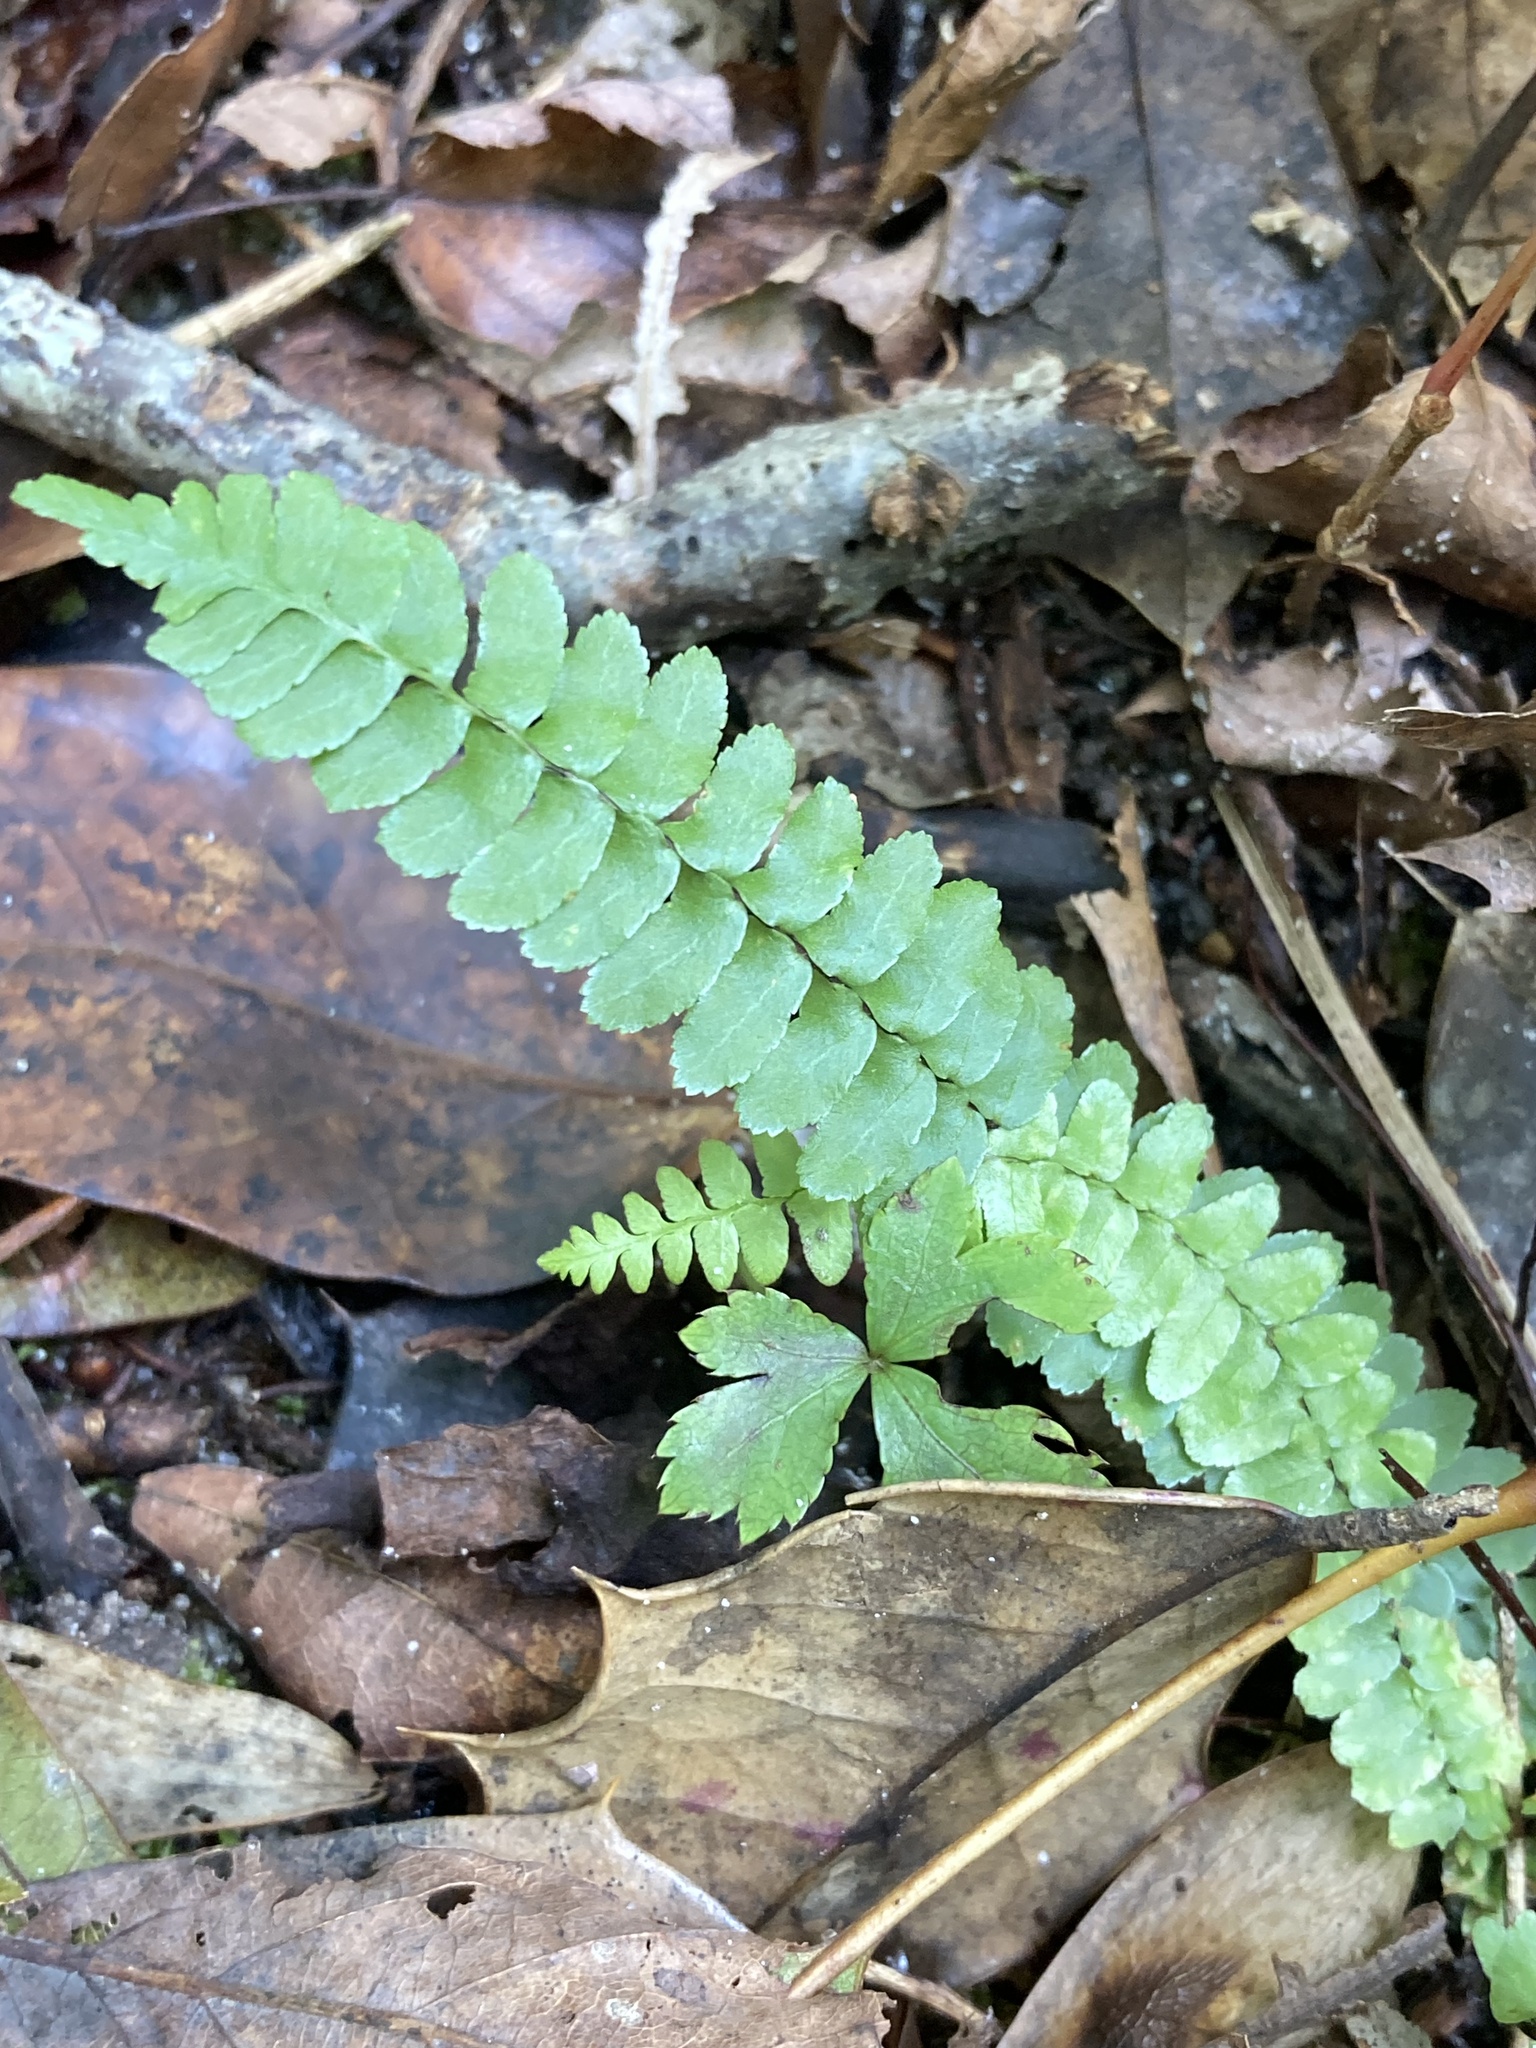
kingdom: Plantae
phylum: Tracheophyta
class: Polypodiopsida
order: Polypodiales
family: Aspleniaceae
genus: Asplenium
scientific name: Asplenium platyneuron
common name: Ebony spleenwort
